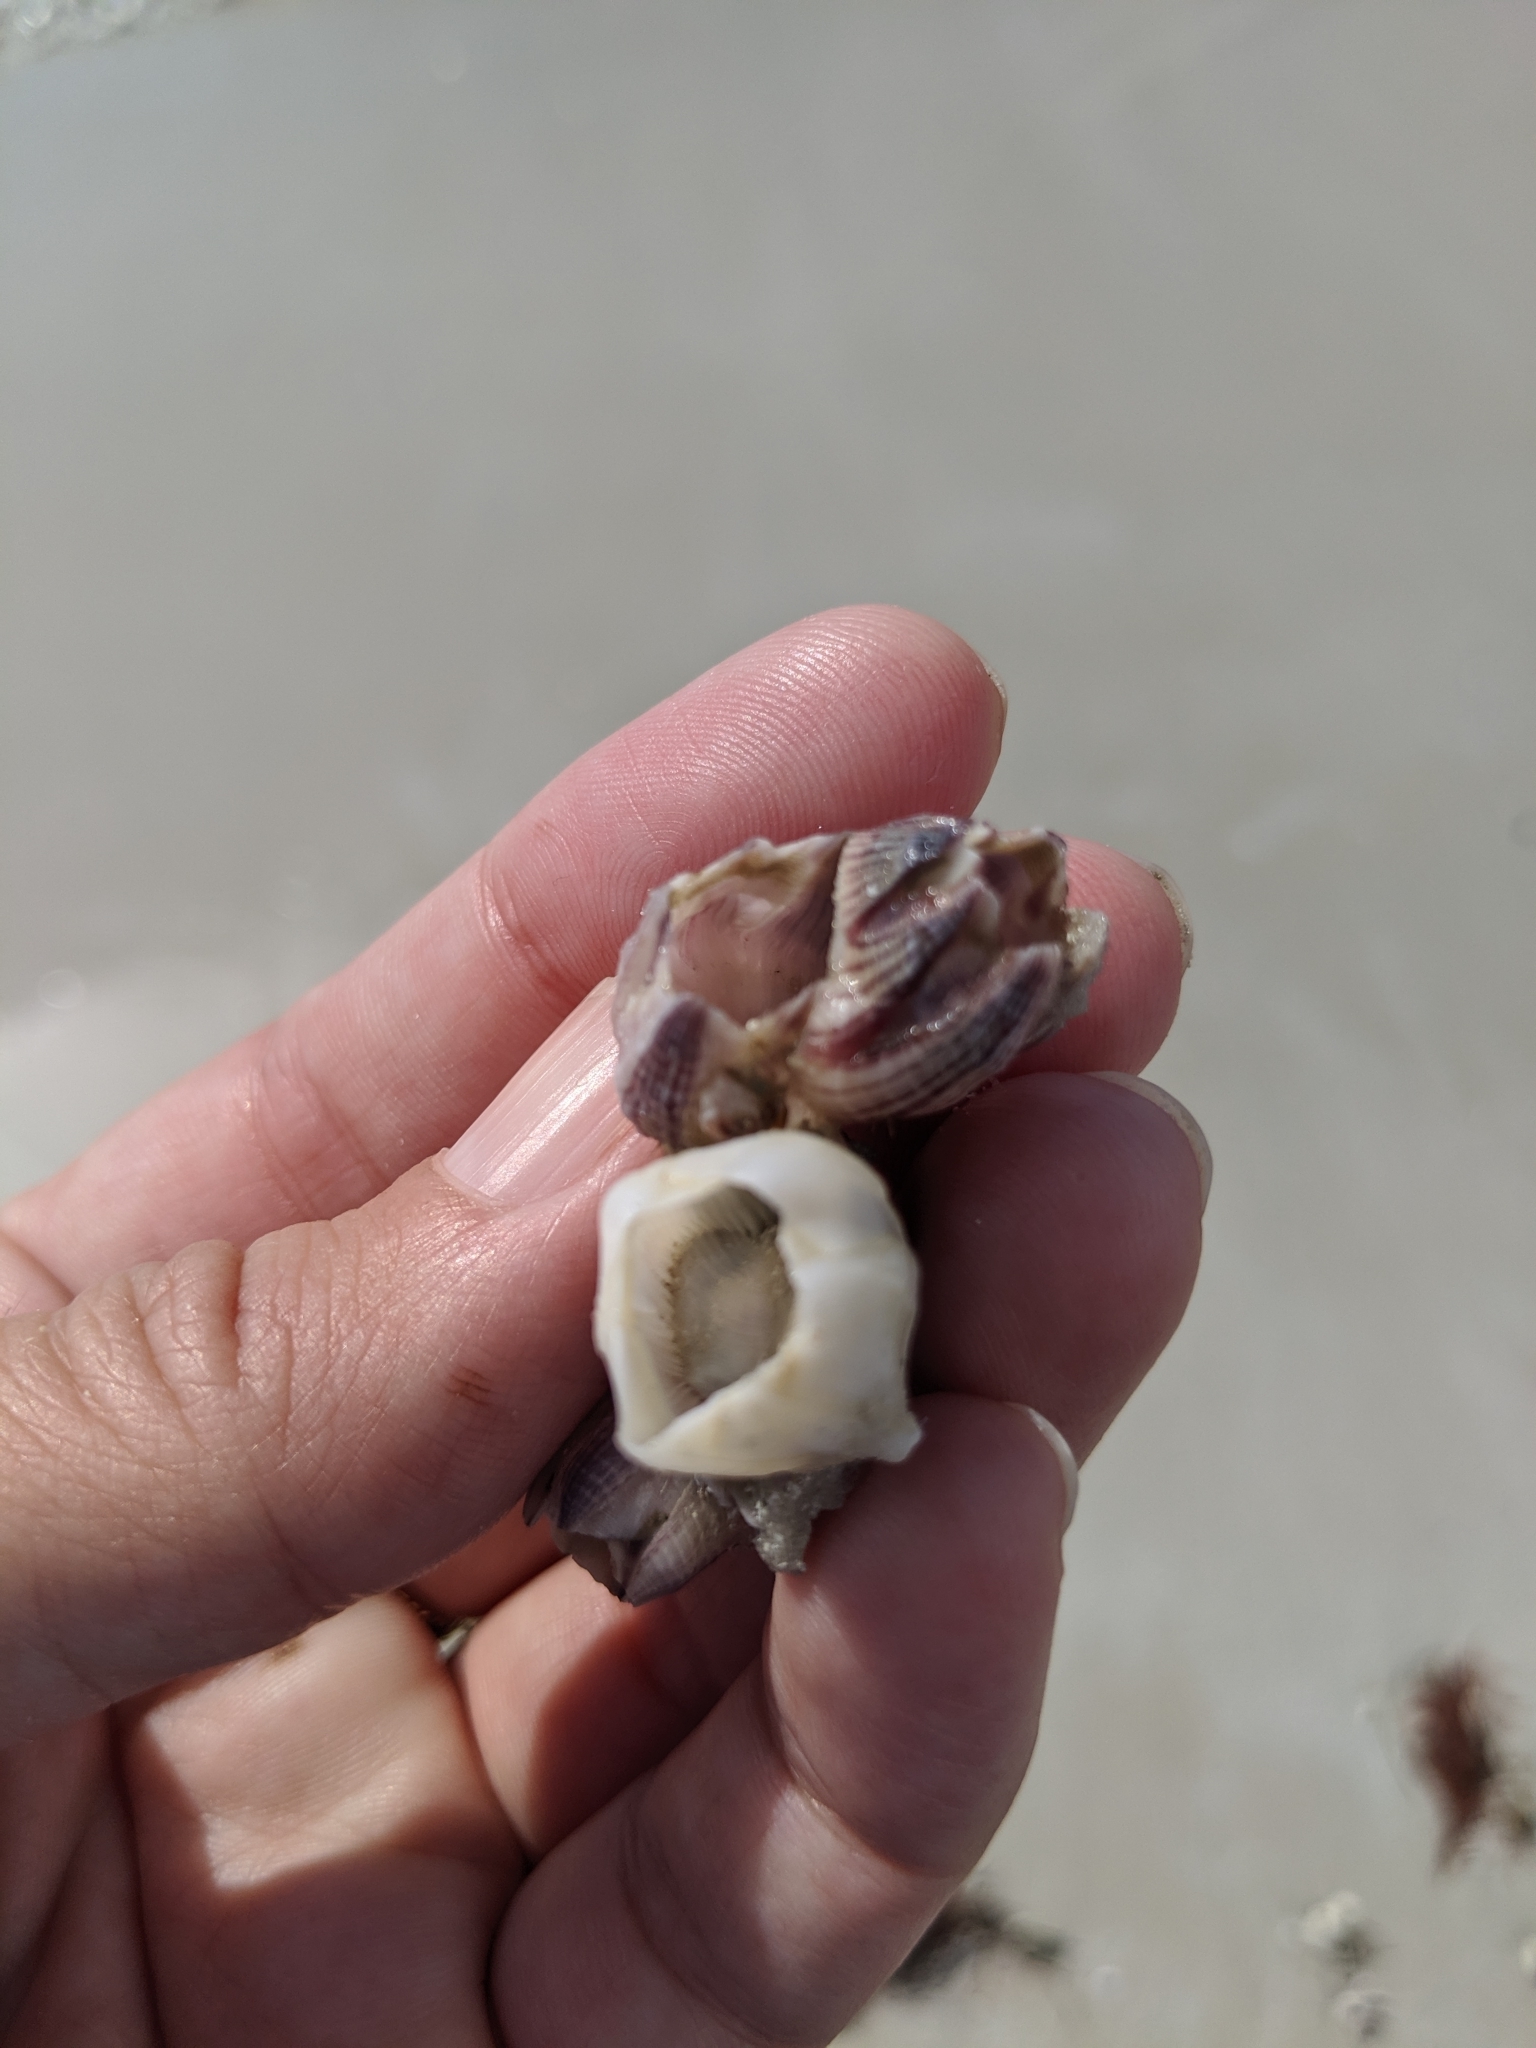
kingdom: Animalia
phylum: Arthropoda
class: Maxillopoda
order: Sessilia
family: Balanidae
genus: Amphibalanus
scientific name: Amphibalanus reticulatus
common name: Reticulated barnacle
